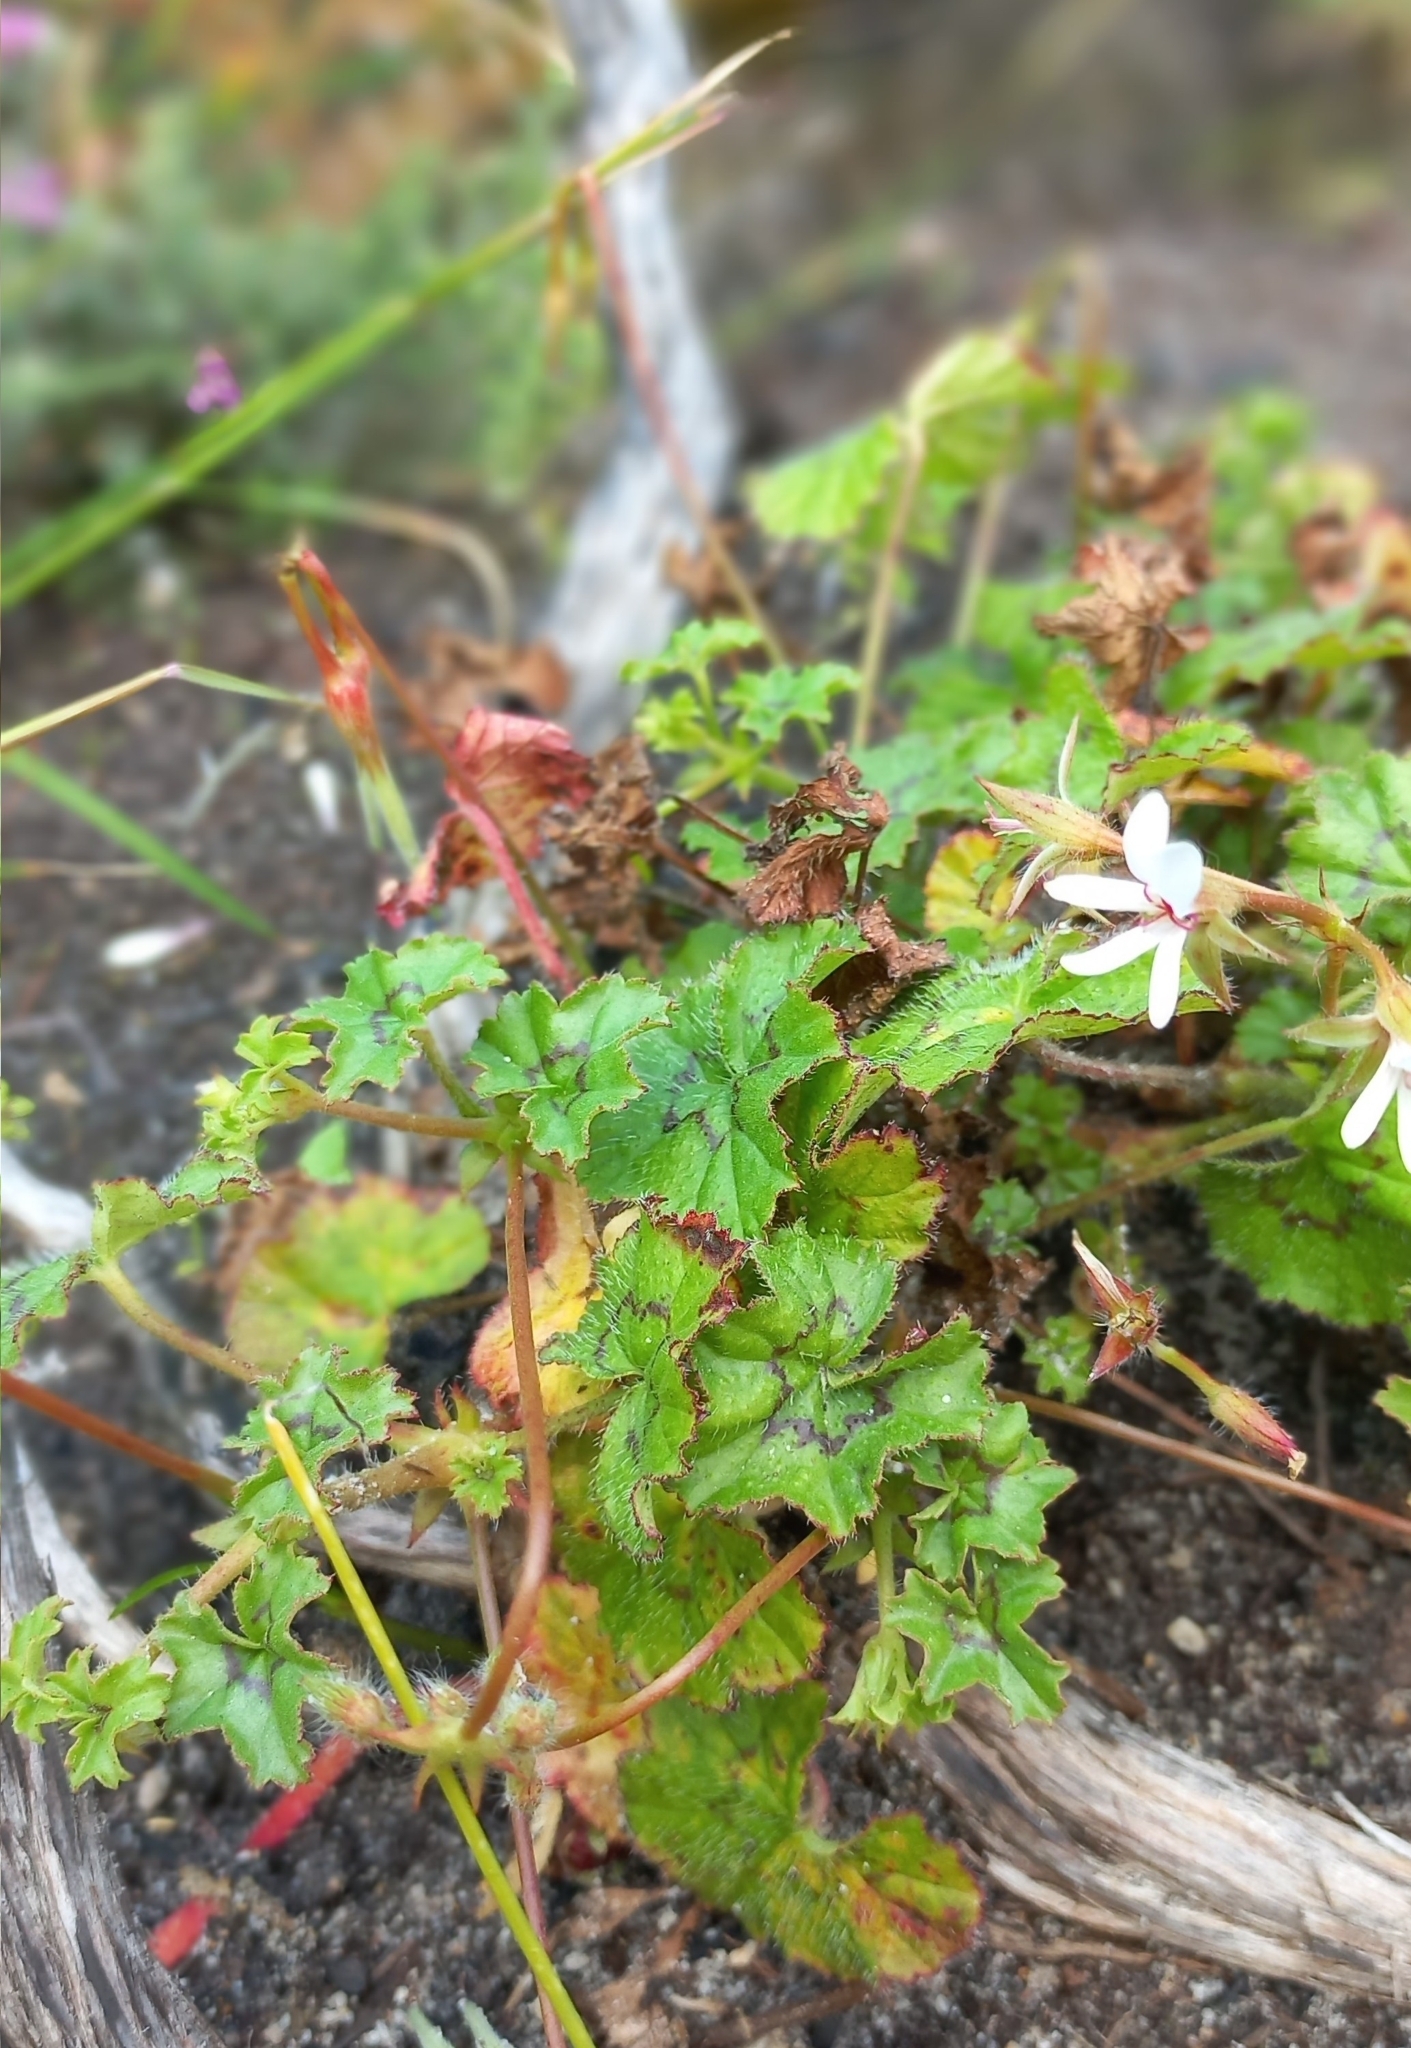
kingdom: Plantae
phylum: Tracheophyta
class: Magnoliopsida
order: Geraniales
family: Geraniaceae
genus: Pelargonium
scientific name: Pelargonium elongatum
